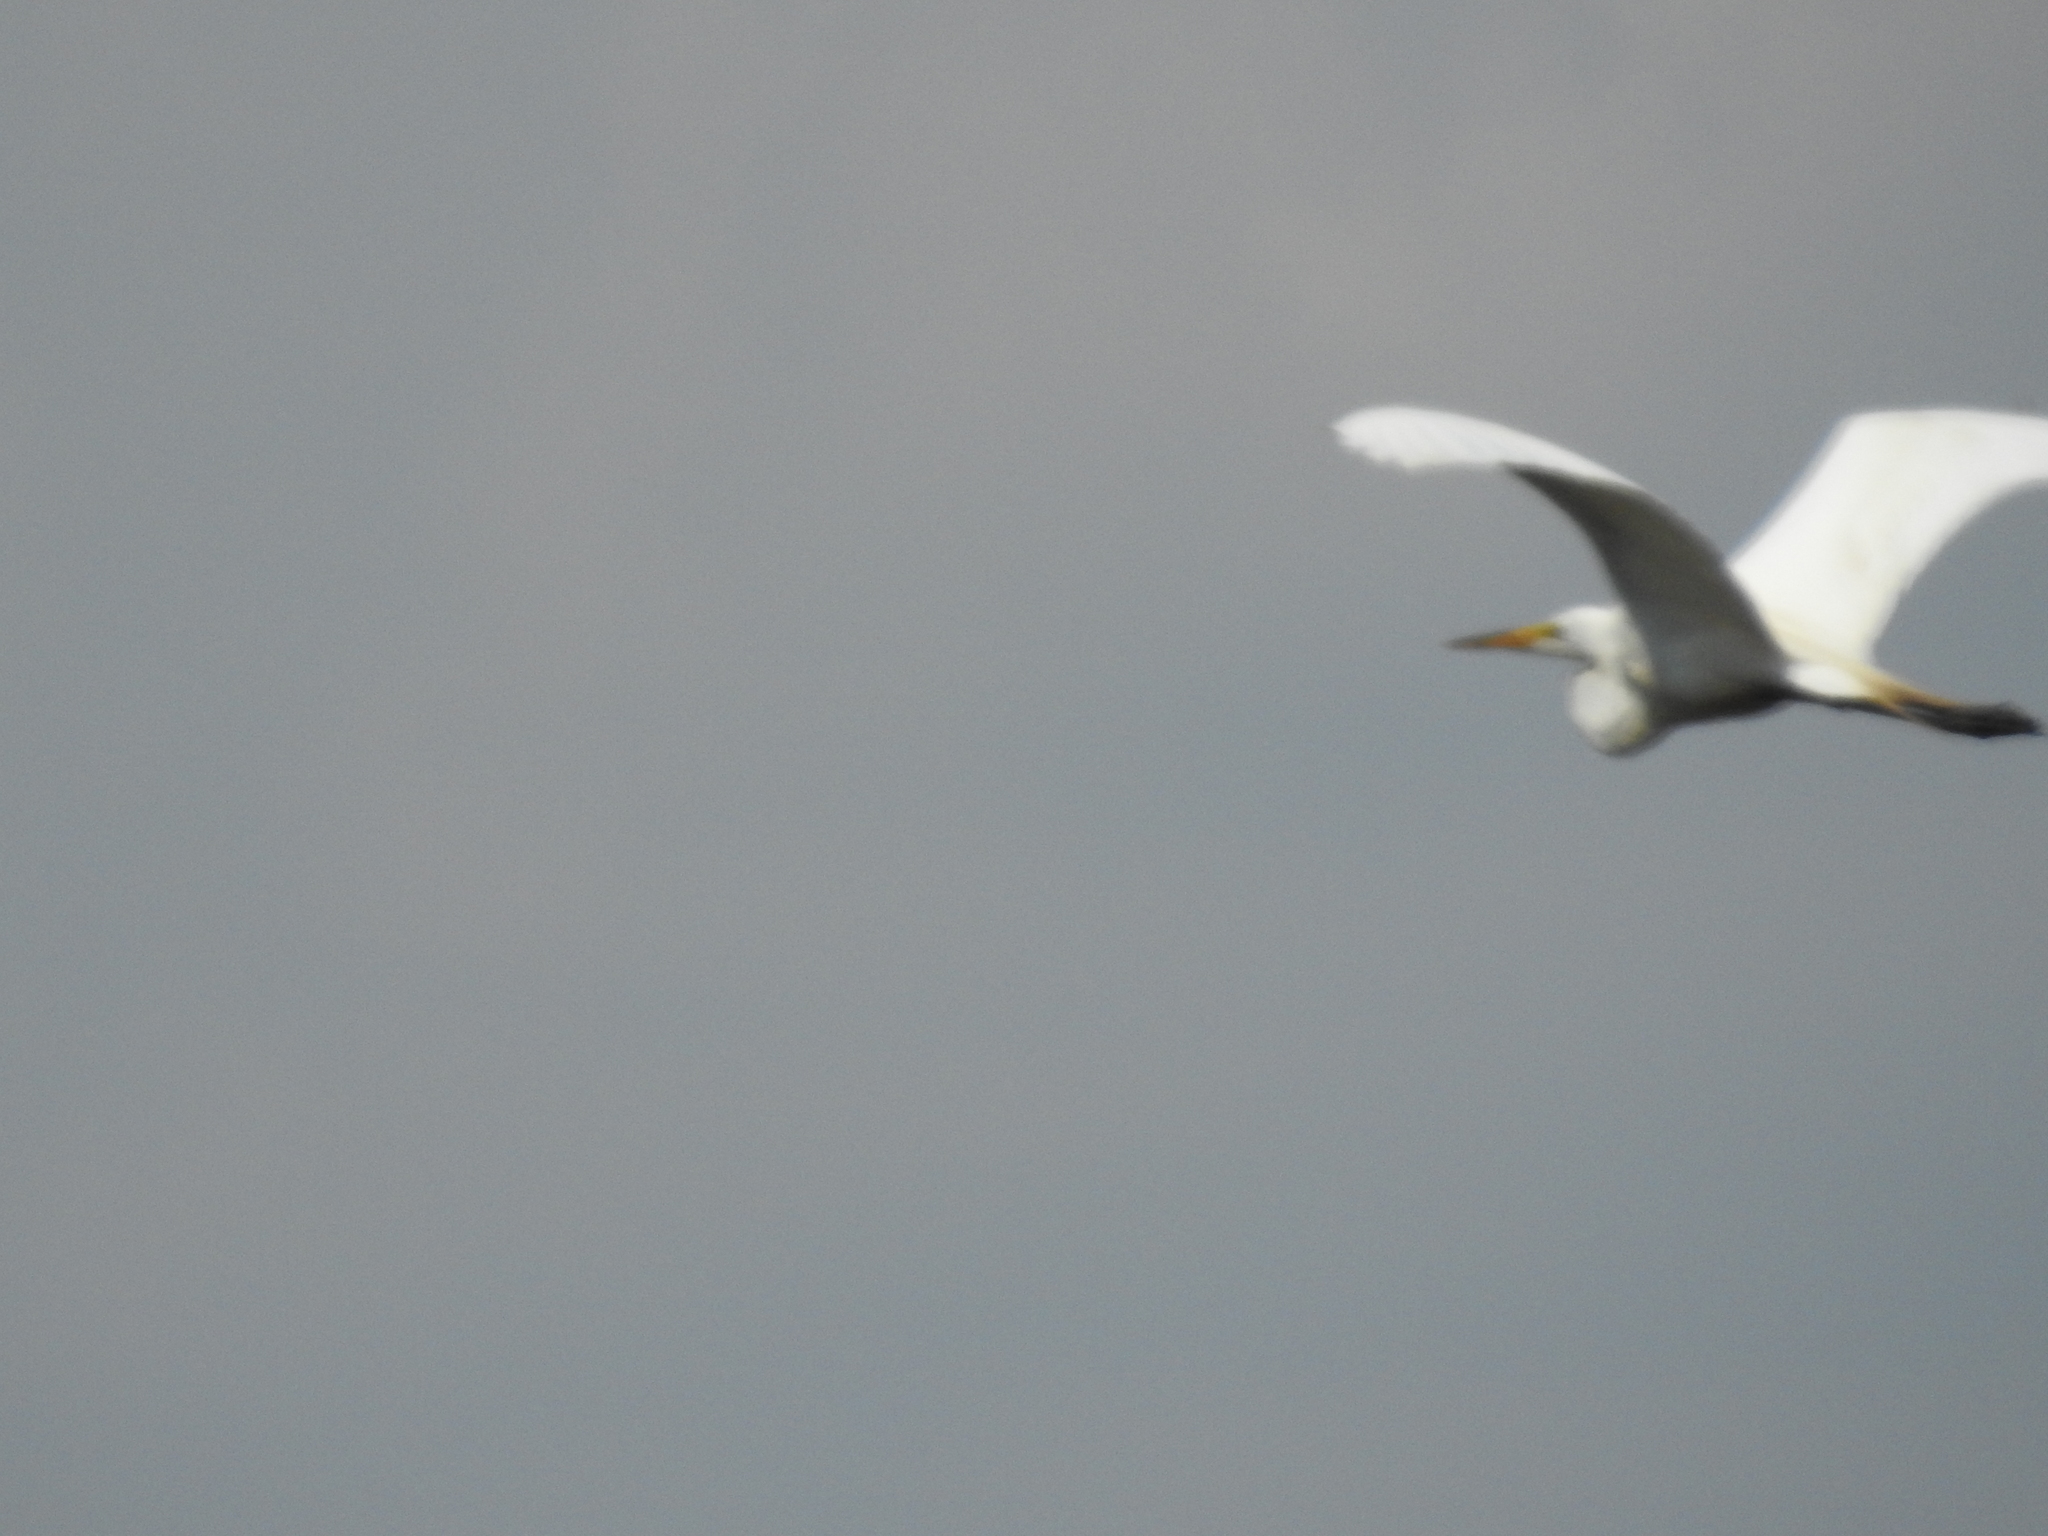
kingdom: Animalia
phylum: Chordata
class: Aves
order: Pelecaniformes
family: Ardeidae
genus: Ardea
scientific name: Ardea alba
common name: Great egret
